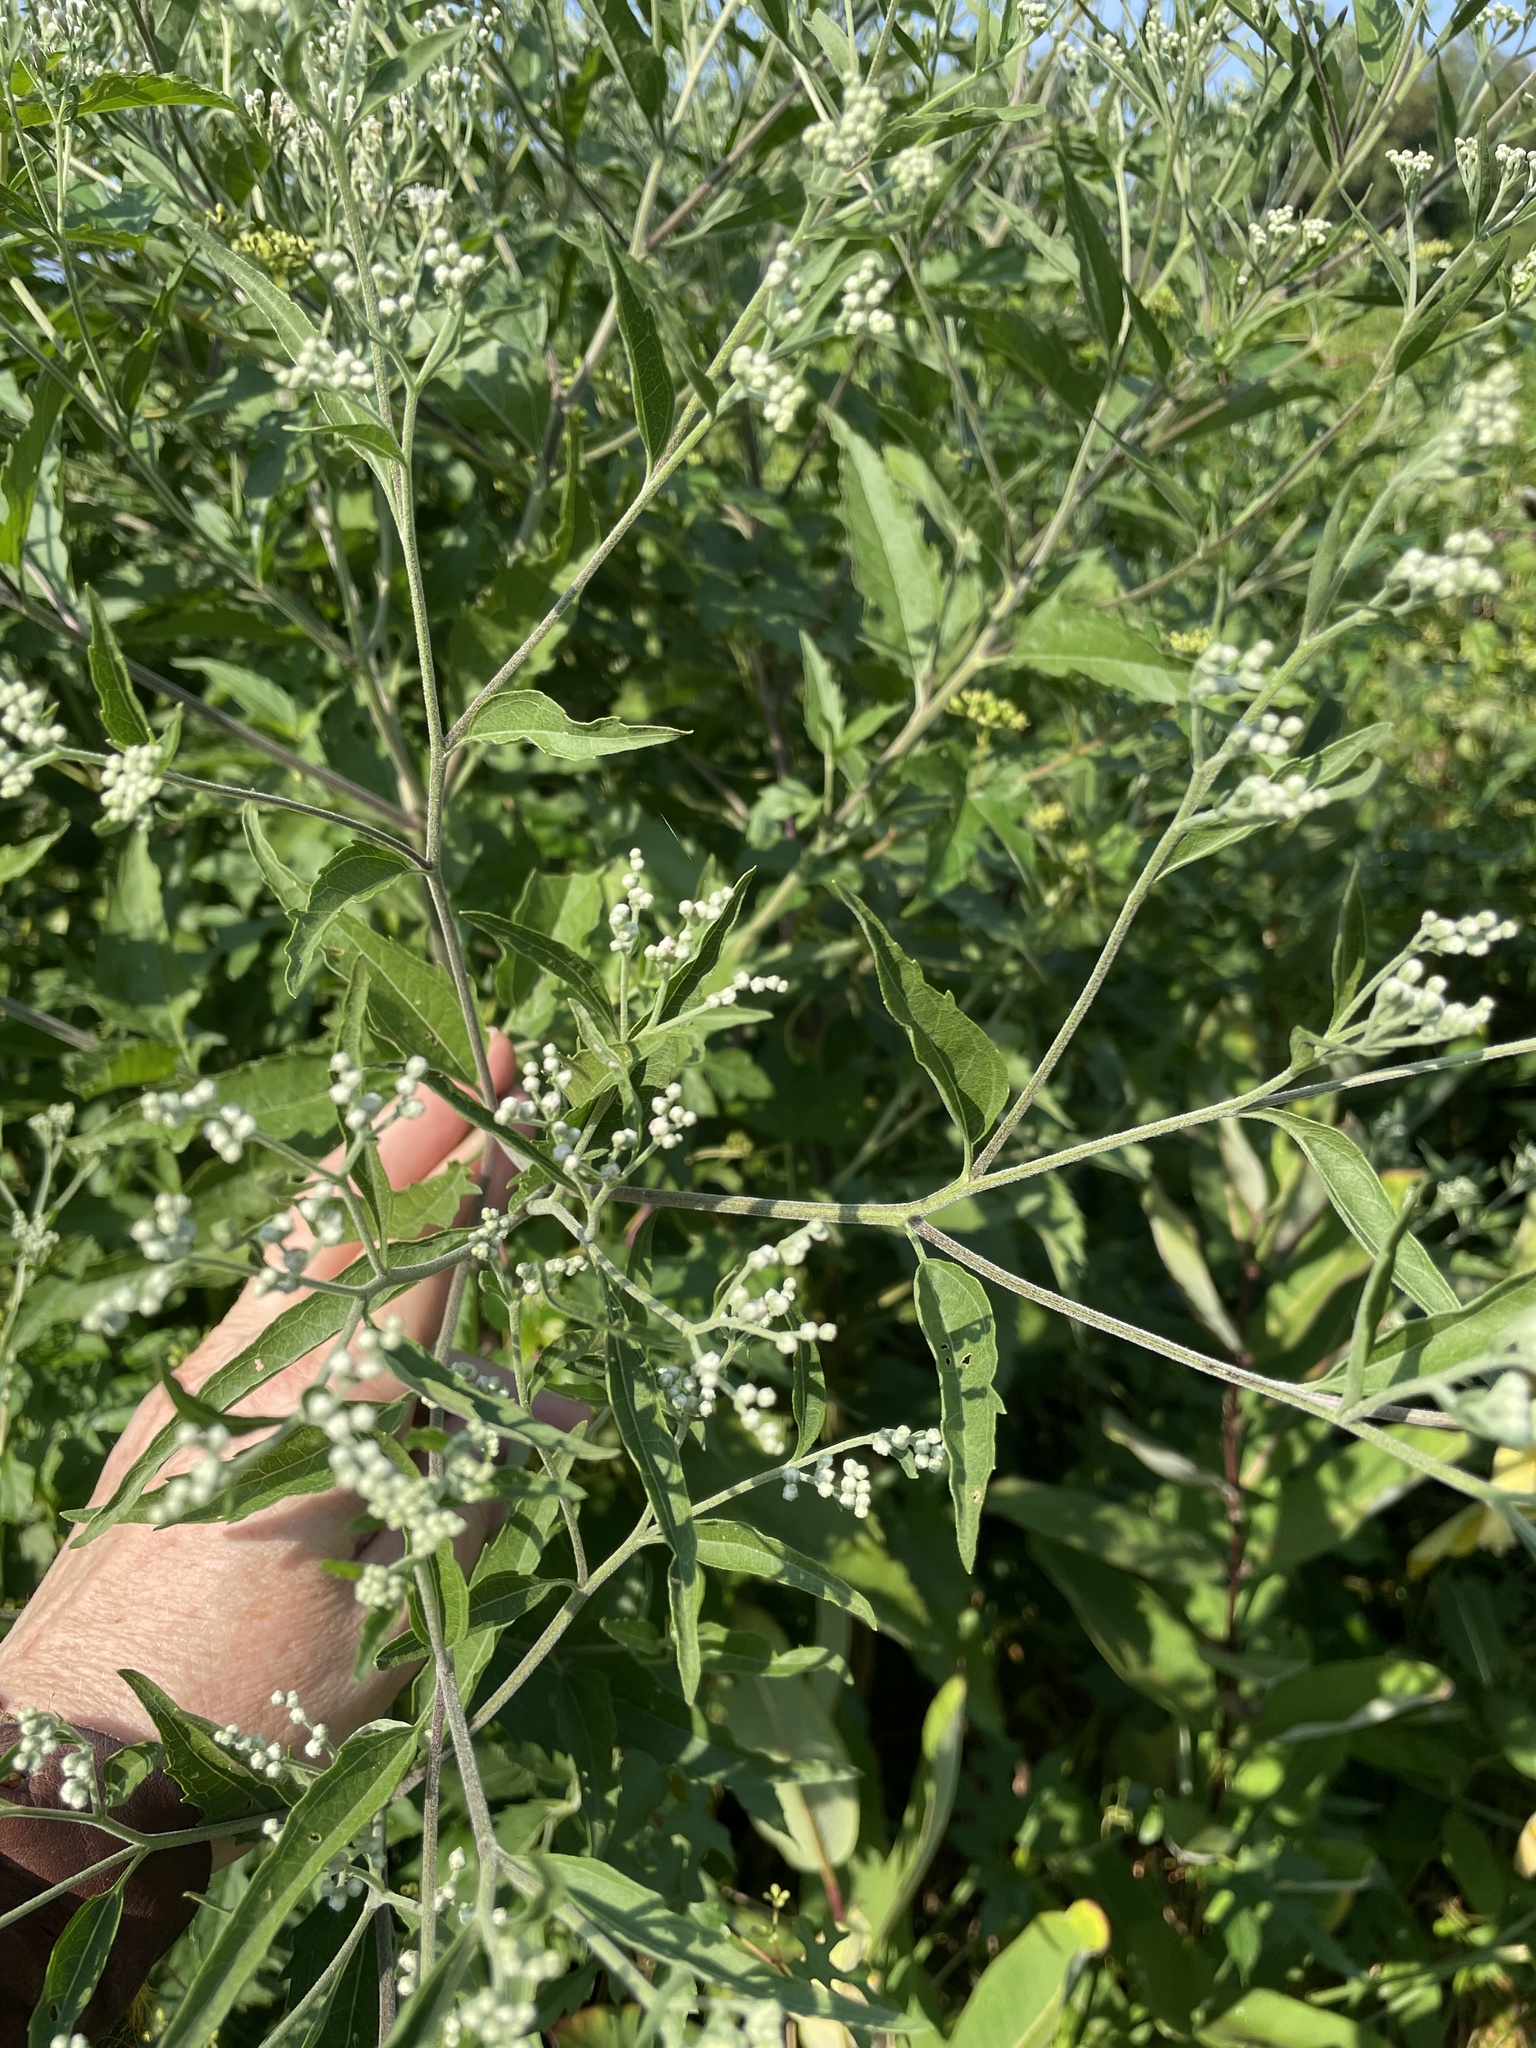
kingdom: Plantae
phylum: Tracheophyta
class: Magnoliopsida
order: Asterales
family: Asteraceae
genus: Eupatorium
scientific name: Eupatorium serotinum
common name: Late boneset
